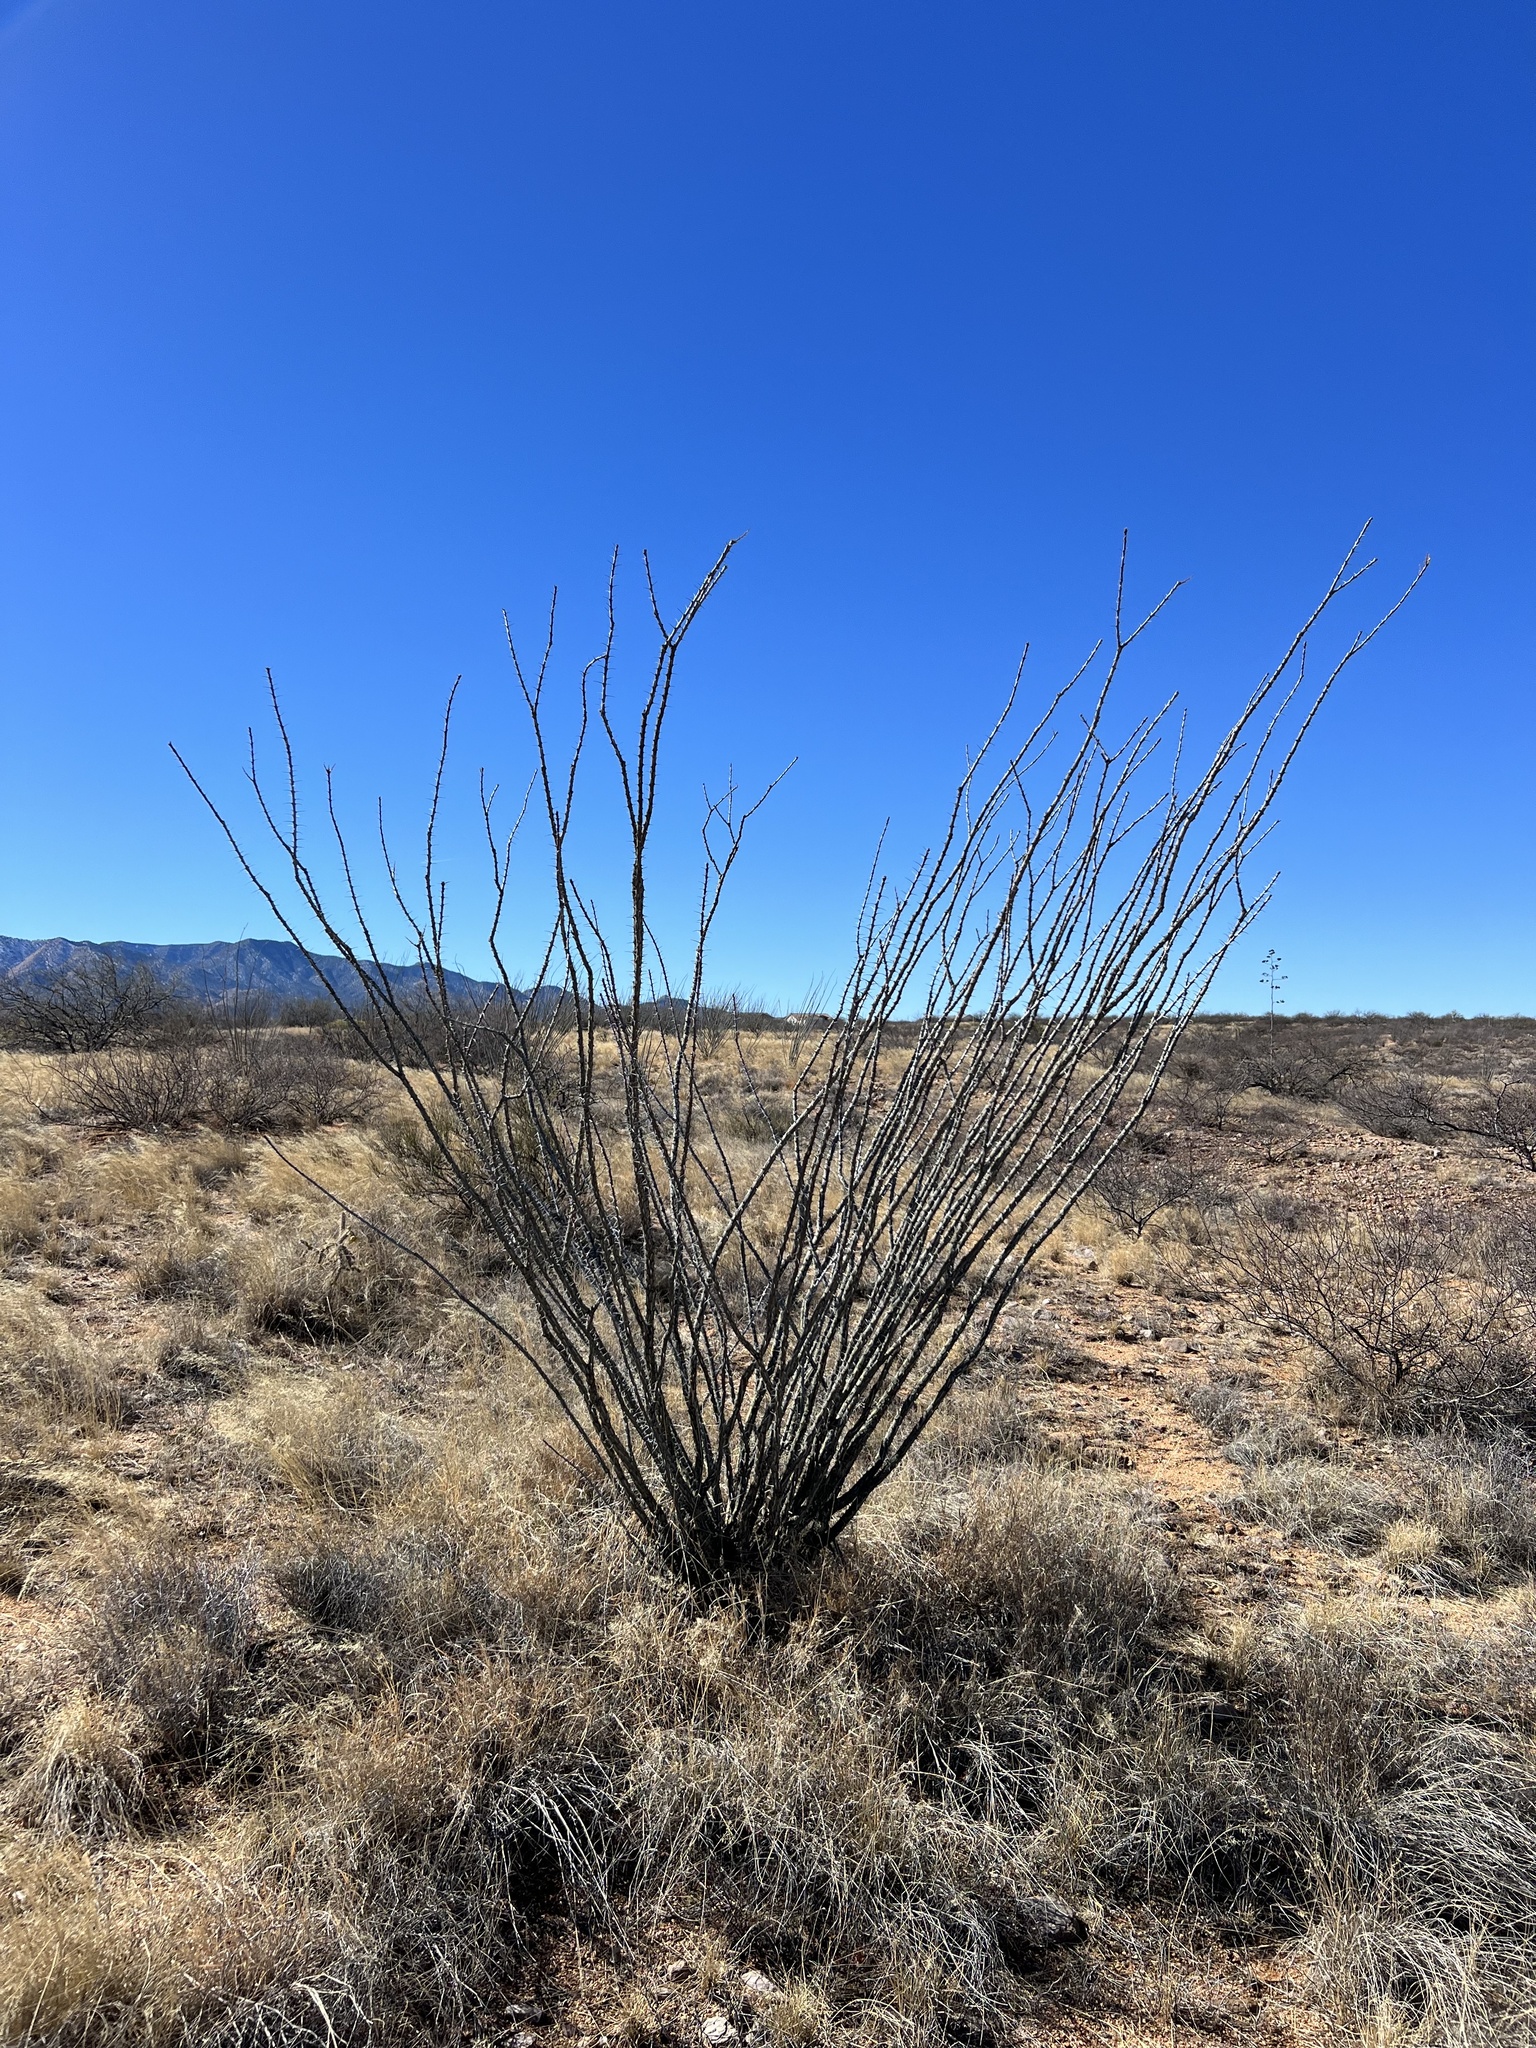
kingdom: Plantae
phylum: Tracheophyta
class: Magnoliopsida
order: Ericales
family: Fouquieriaceae
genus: Fouquieria
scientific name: Fouquieria splendens
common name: Vine-cactus
